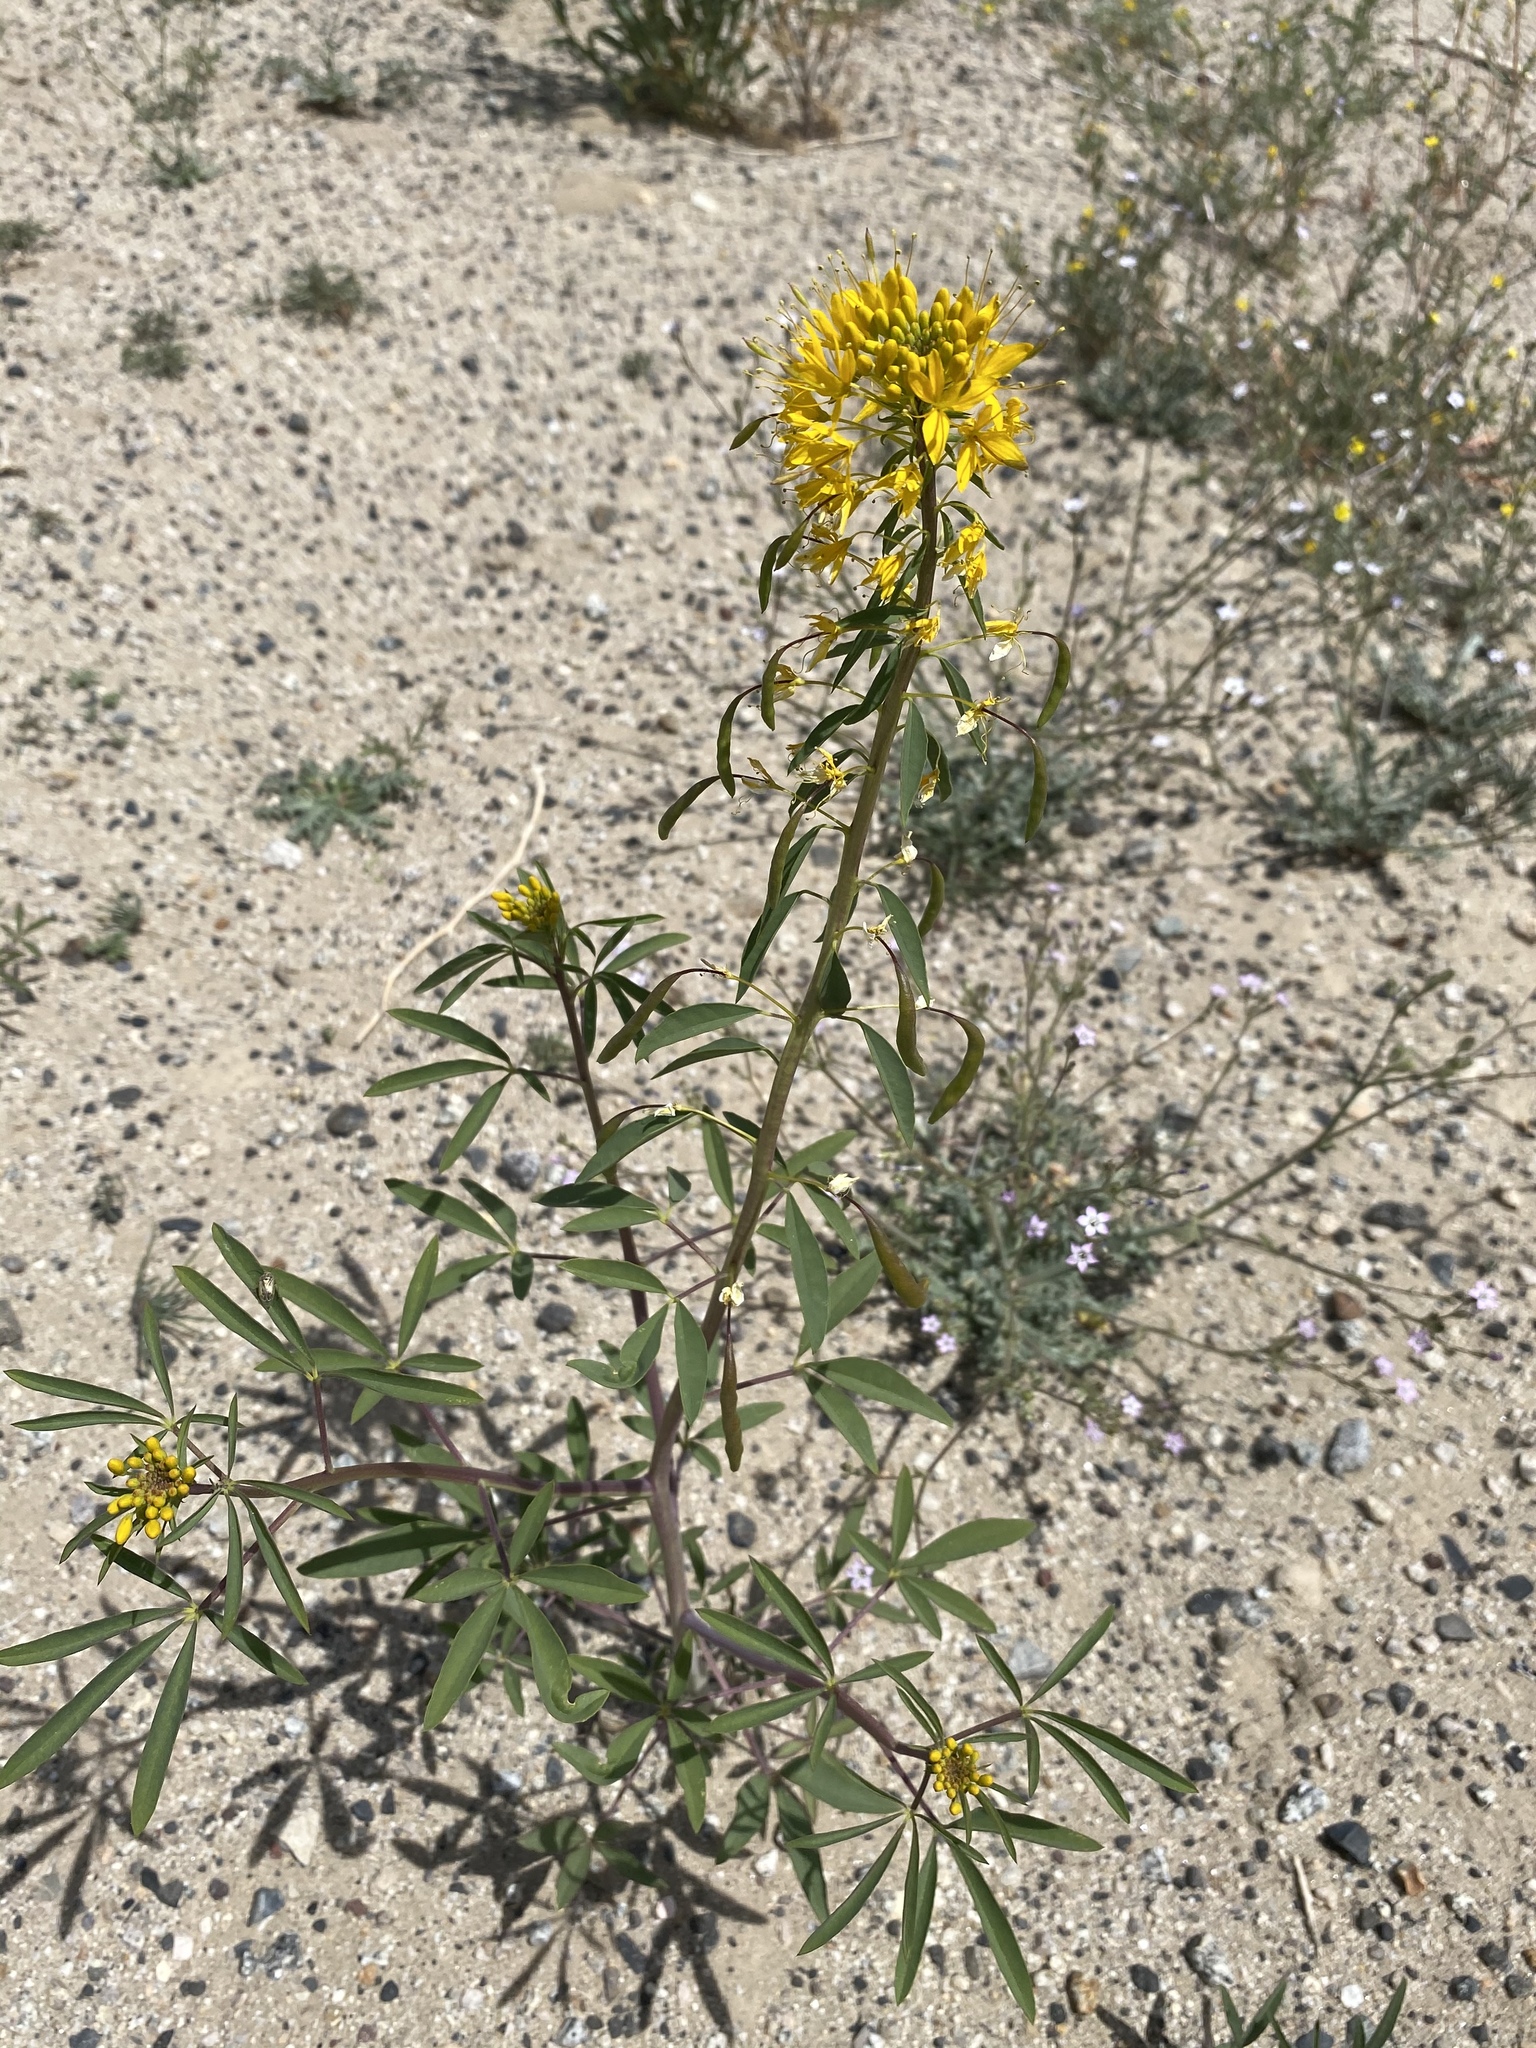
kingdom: Plantae
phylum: Tracheophyta
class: Magnoliopsida
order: Brassicales
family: Cleomaceae
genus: Cleomella
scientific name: Cleomella lutea
